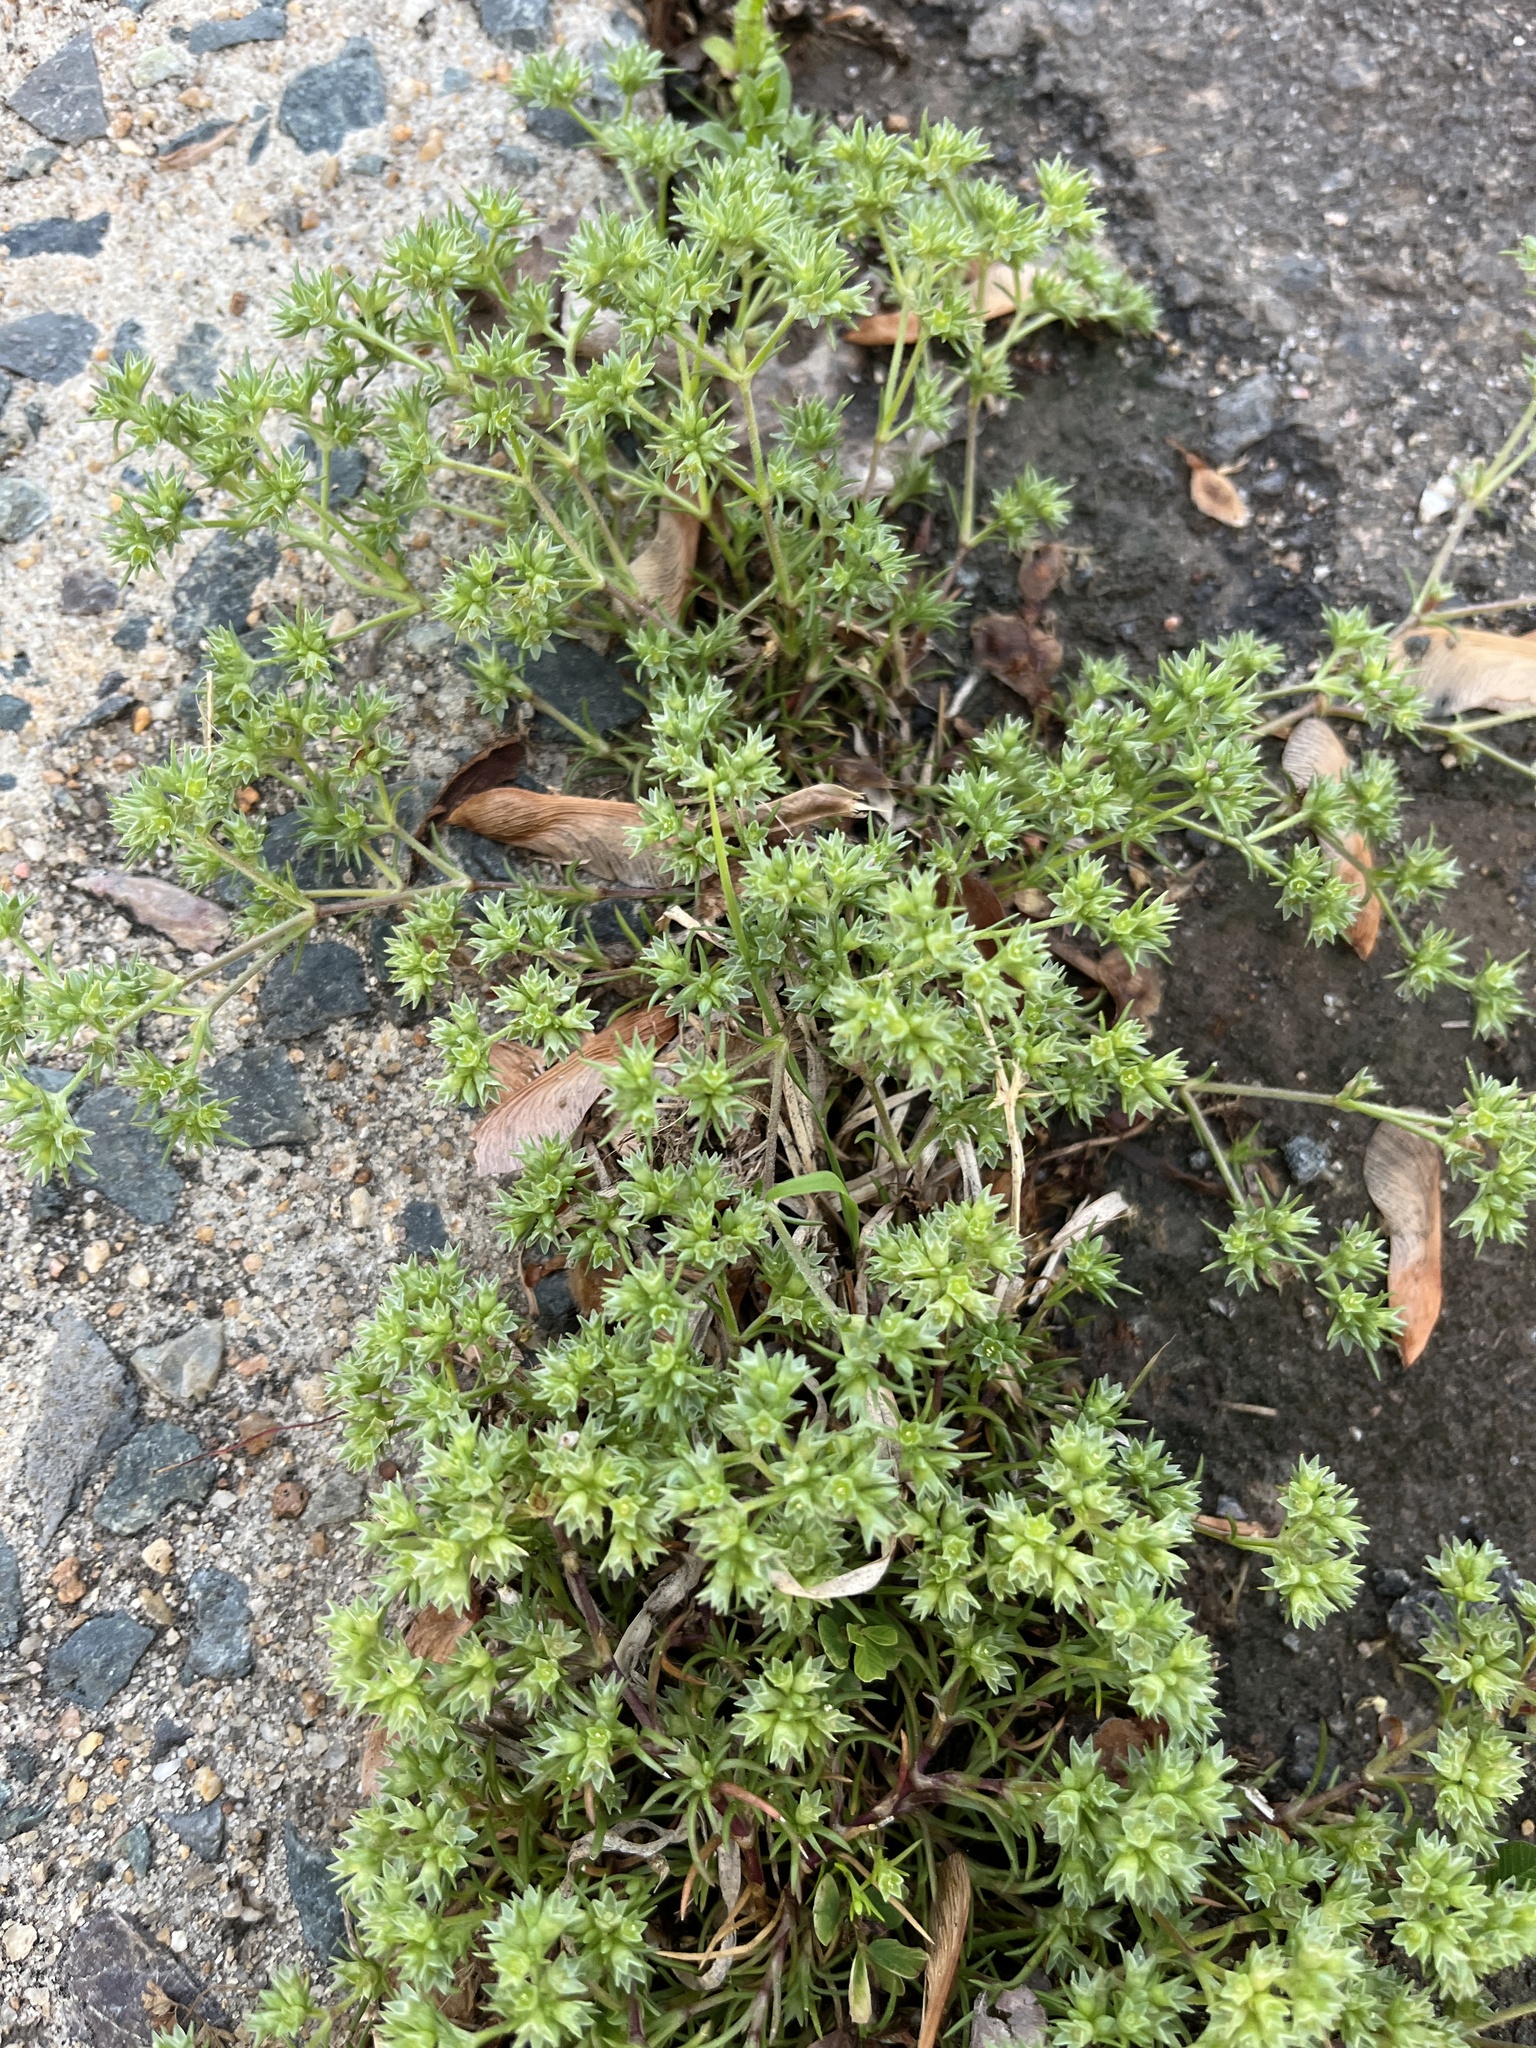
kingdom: Plantae
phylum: Tracheophyta
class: Magnoliopsida
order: Caryophyllales
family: Caryophyllaceae
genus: Scleranthus
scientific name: Scleranthus annuus
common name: Annual knawel
